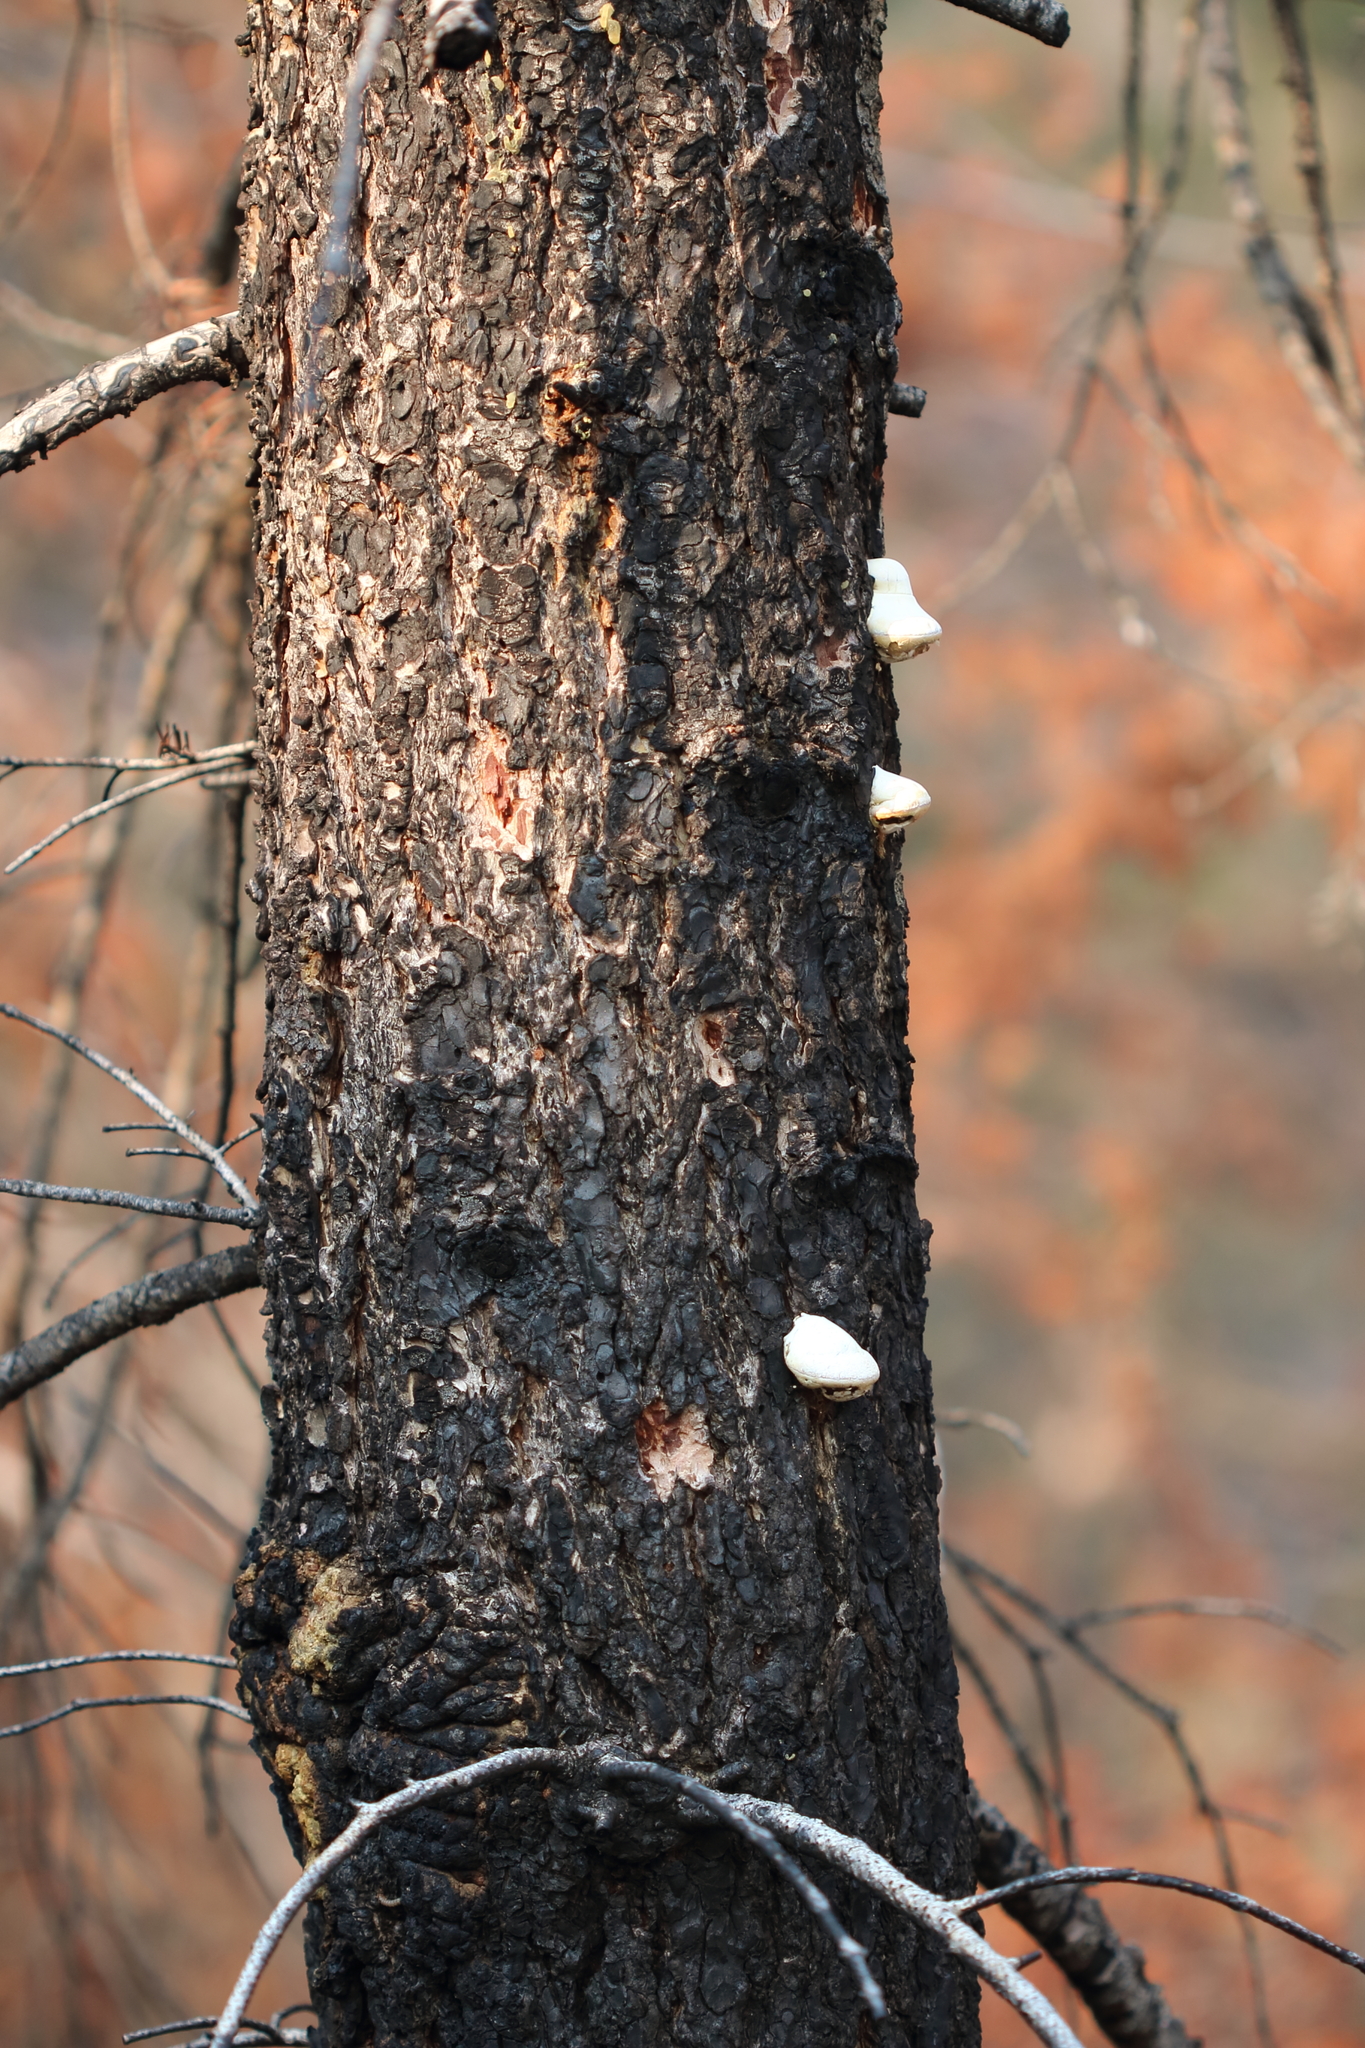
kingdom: Fungi
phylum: Basidiomycota
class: Agaricomycetes
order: Polyporales
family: Polyporaceae
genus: Cryptoporus
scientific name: Cryptoporus volvatus
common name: Veiled polypore
